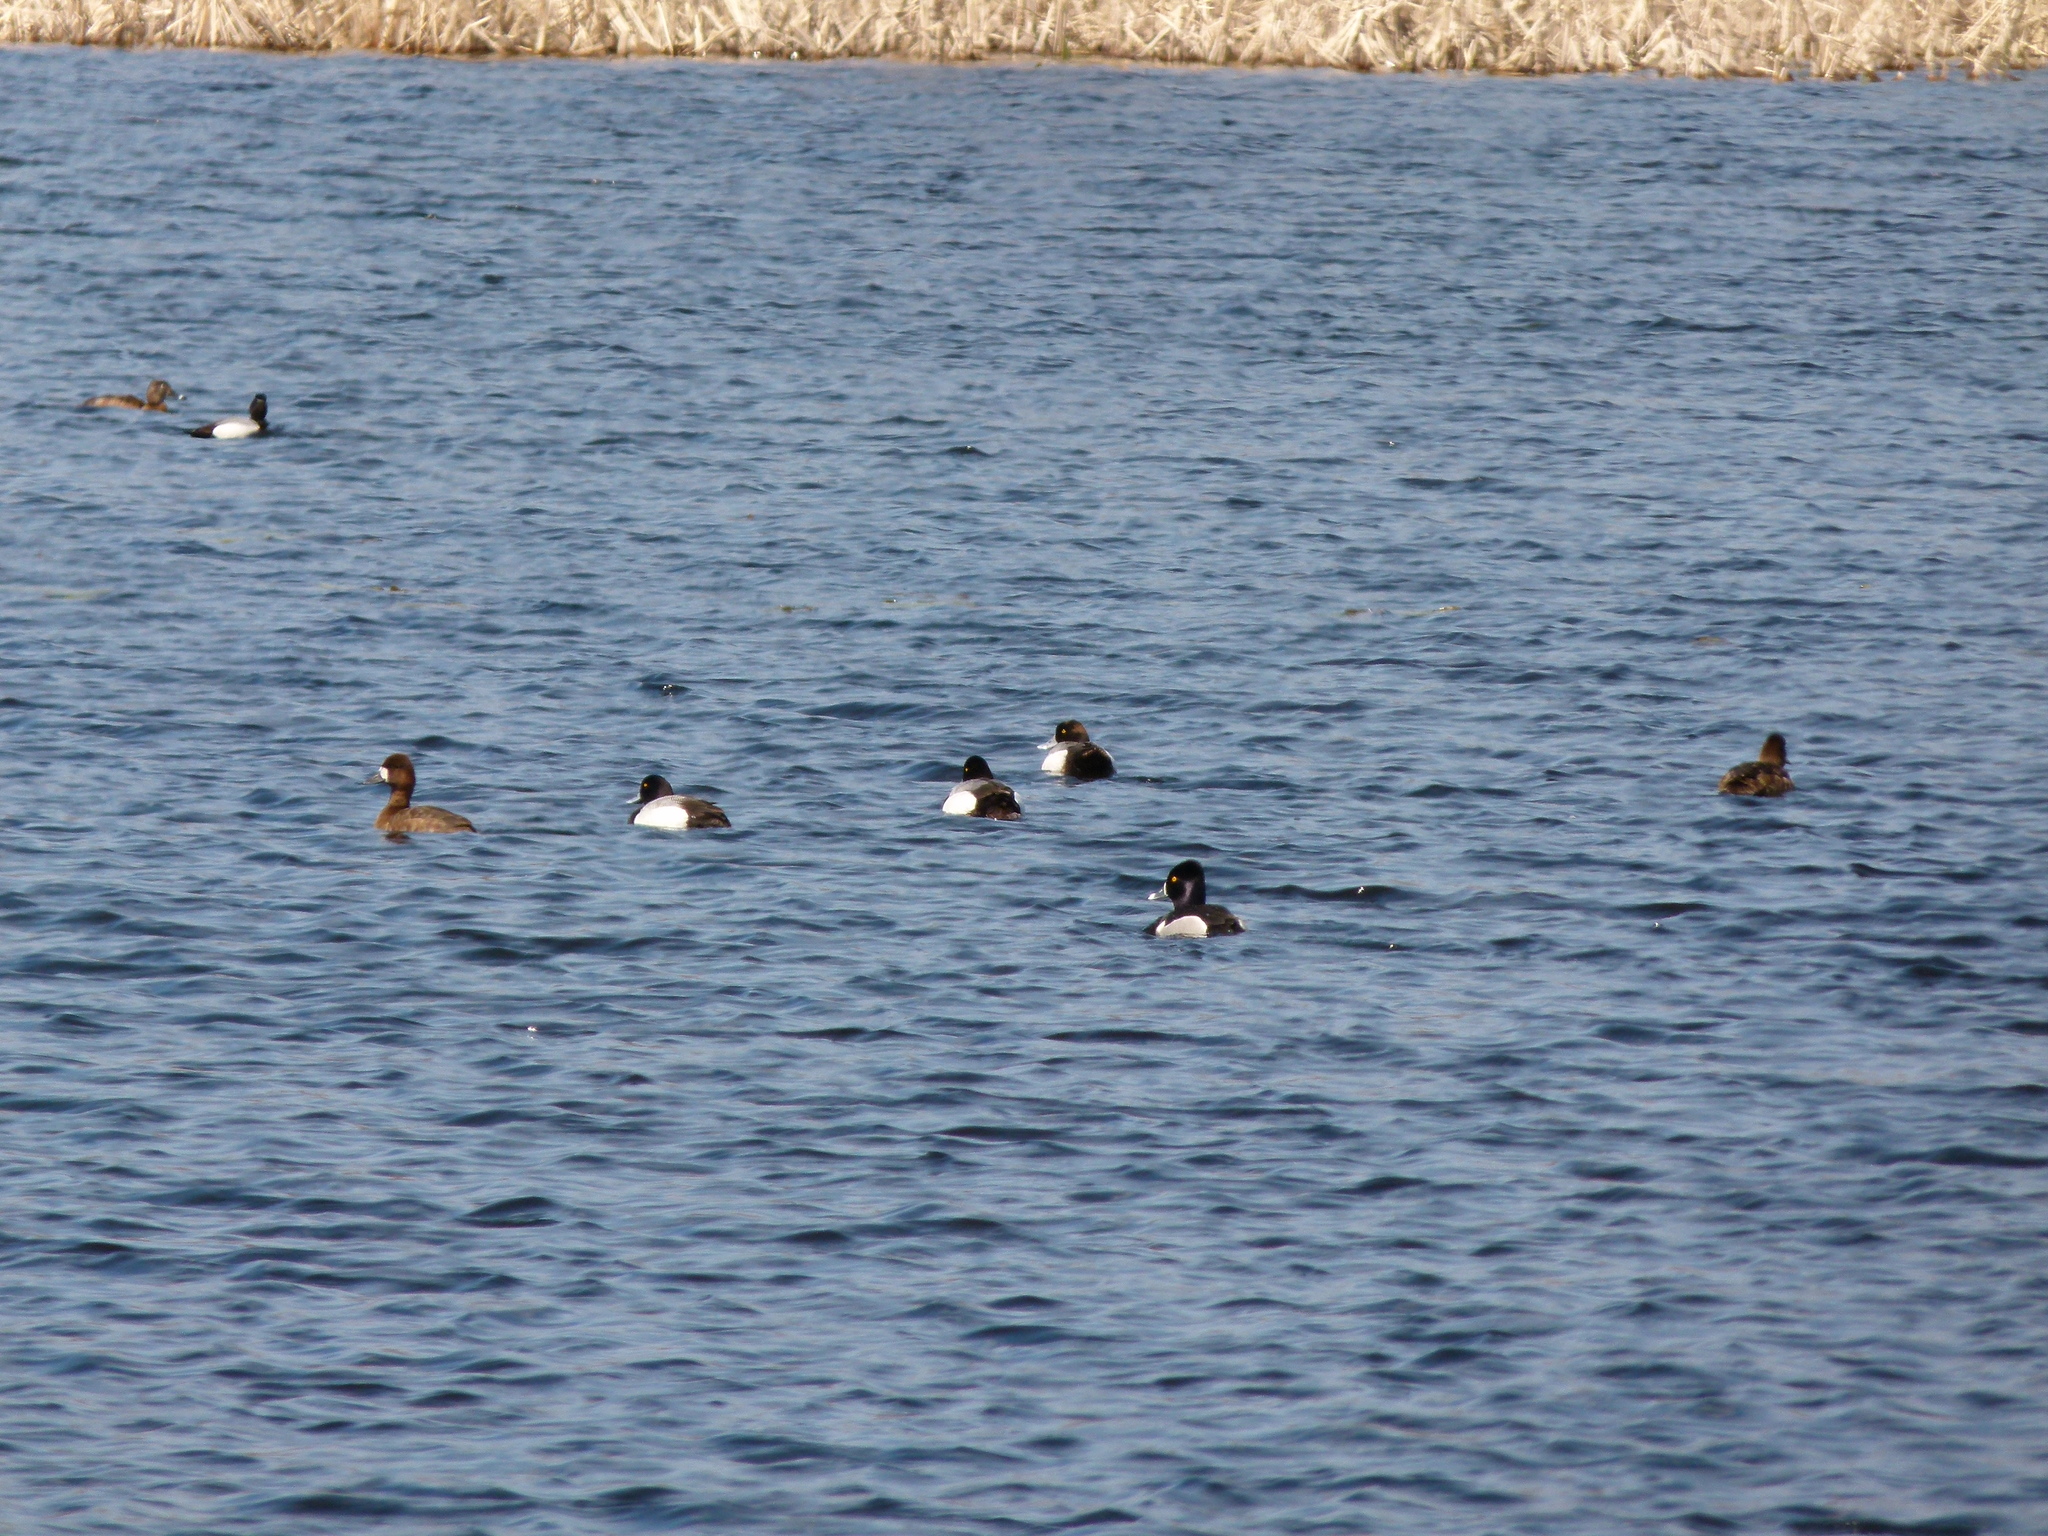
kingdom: Animalia
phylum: Chordata
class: Aves
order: Anseriformes
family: Anatidae
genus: Aythya
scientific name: Aythya affinis
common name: Lesser scaup
